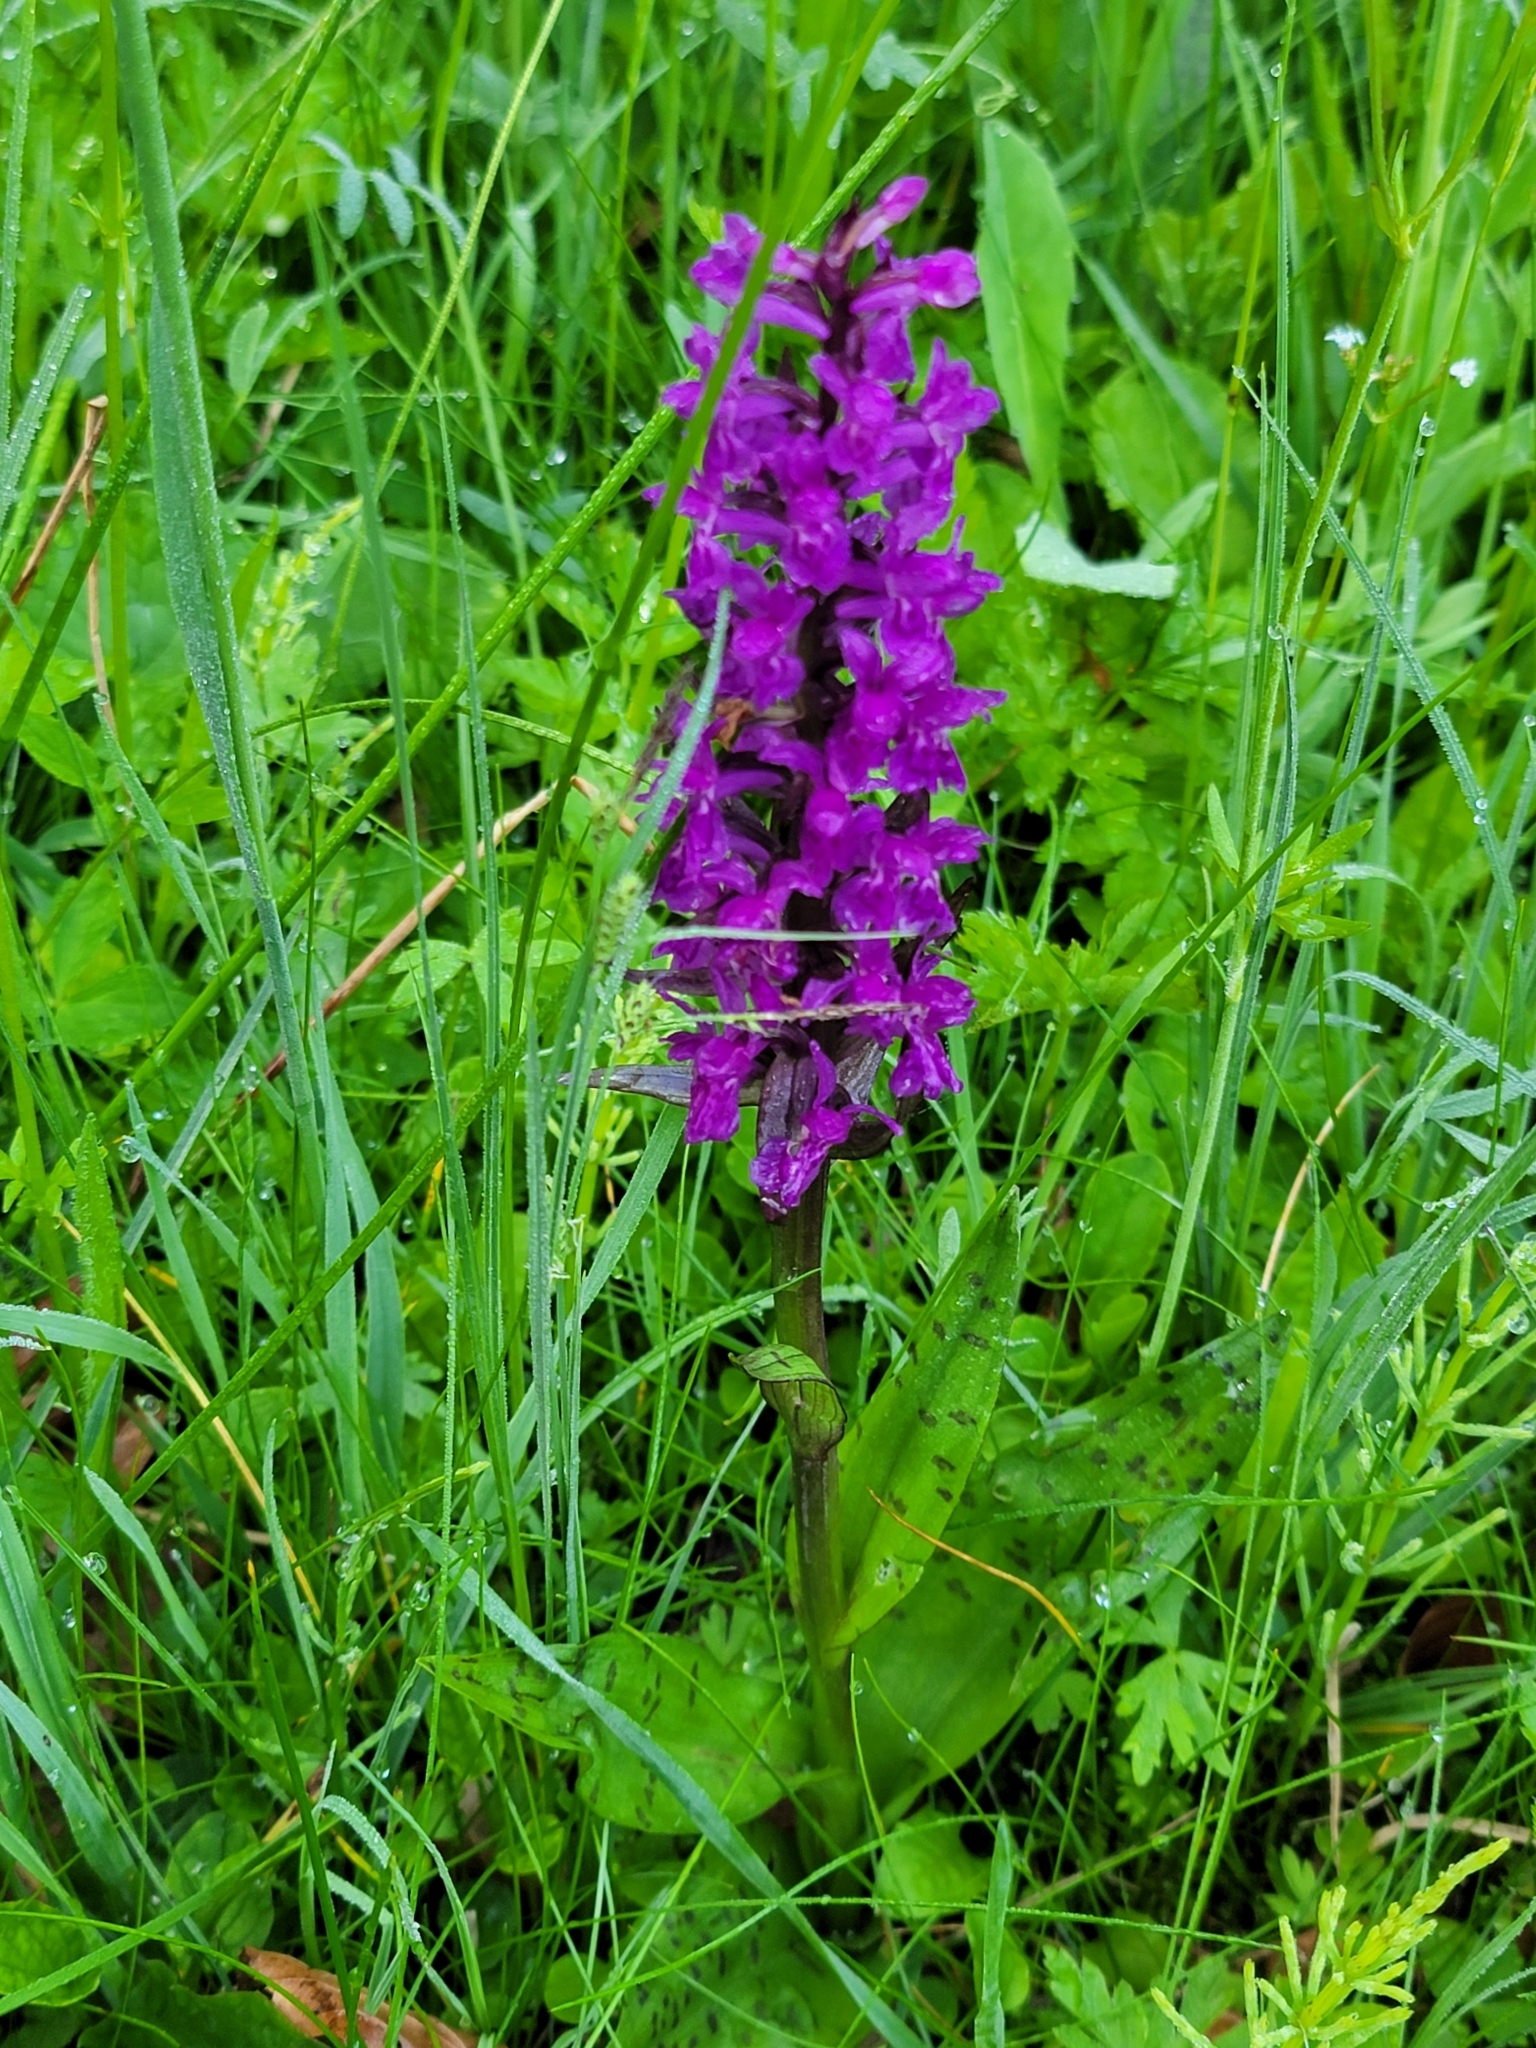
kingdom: Plantae
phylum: Tracheophyta
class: Liliopsida
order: Asparagales
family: Orchidaceae
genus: Dactylorhiza
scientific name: Dactylorhiza majalis
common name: Marsh orchid
